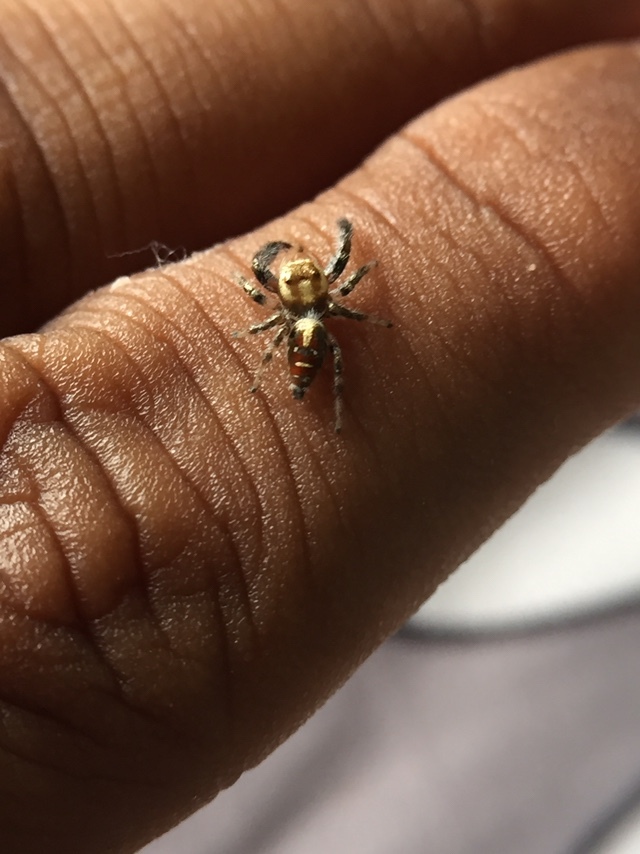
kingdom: Animalia
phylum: Arthropoda
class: Arachnida
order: Araneae
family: Salticidae
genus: Thyene
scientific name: Thyene imperialis
